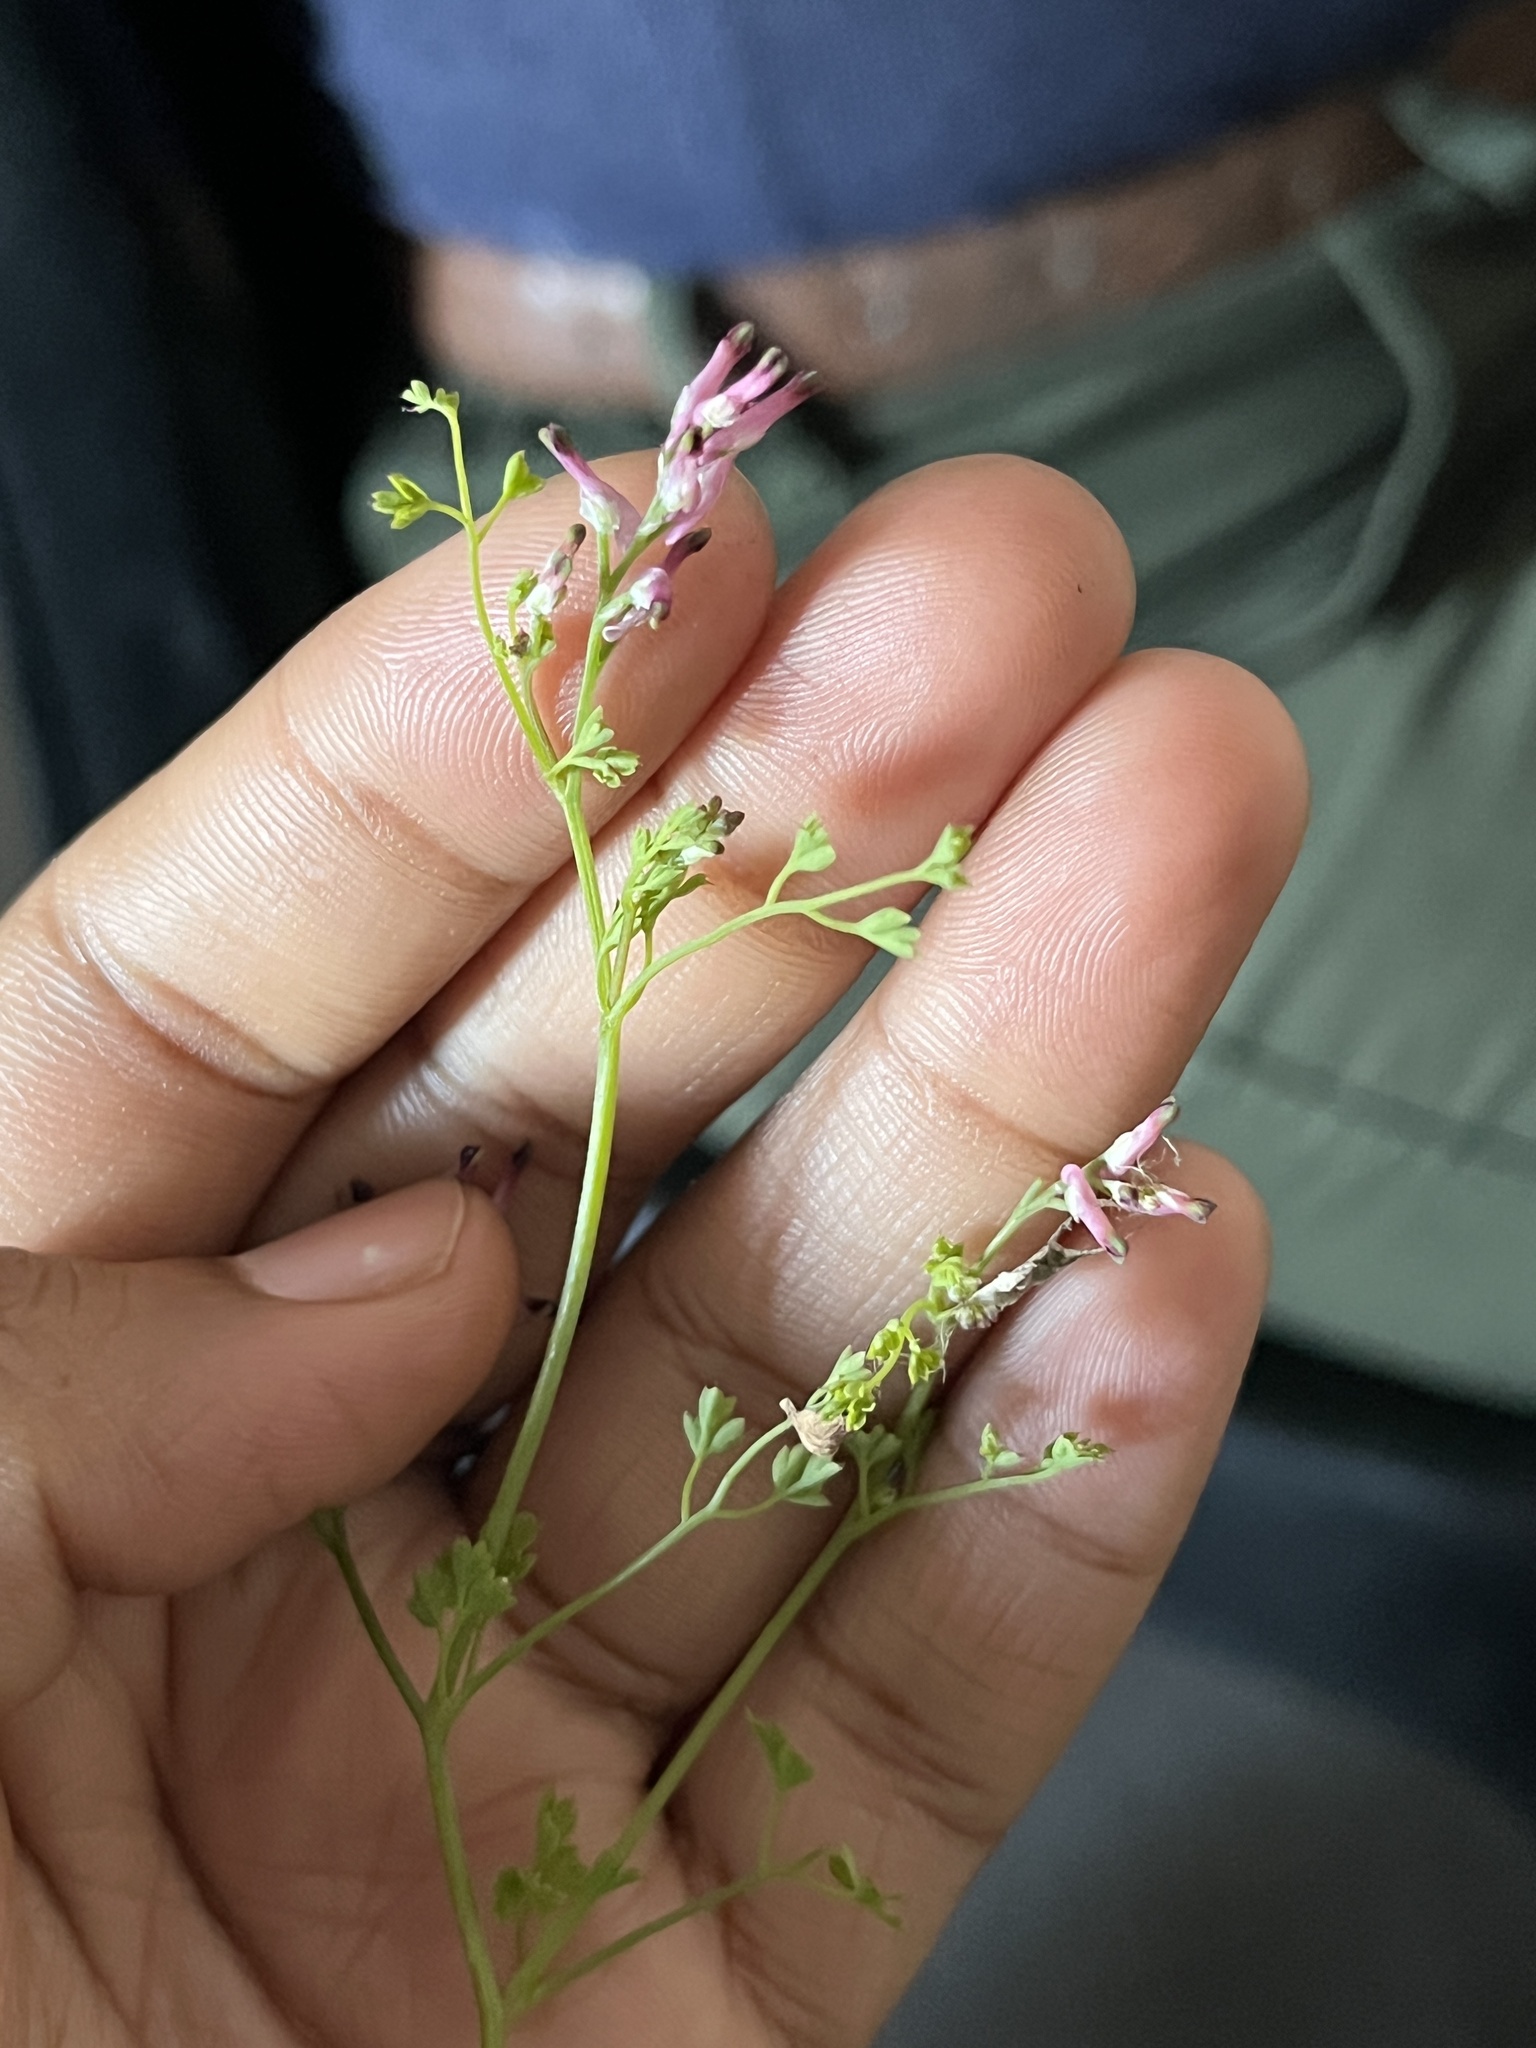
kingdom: Plantae
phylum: Tracheophyta
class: Magnoliopsida
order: Ranunculales
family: Papaveraceae
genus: Fumaria
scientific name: Fumaria muralis
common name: Common ramping-fumitory
